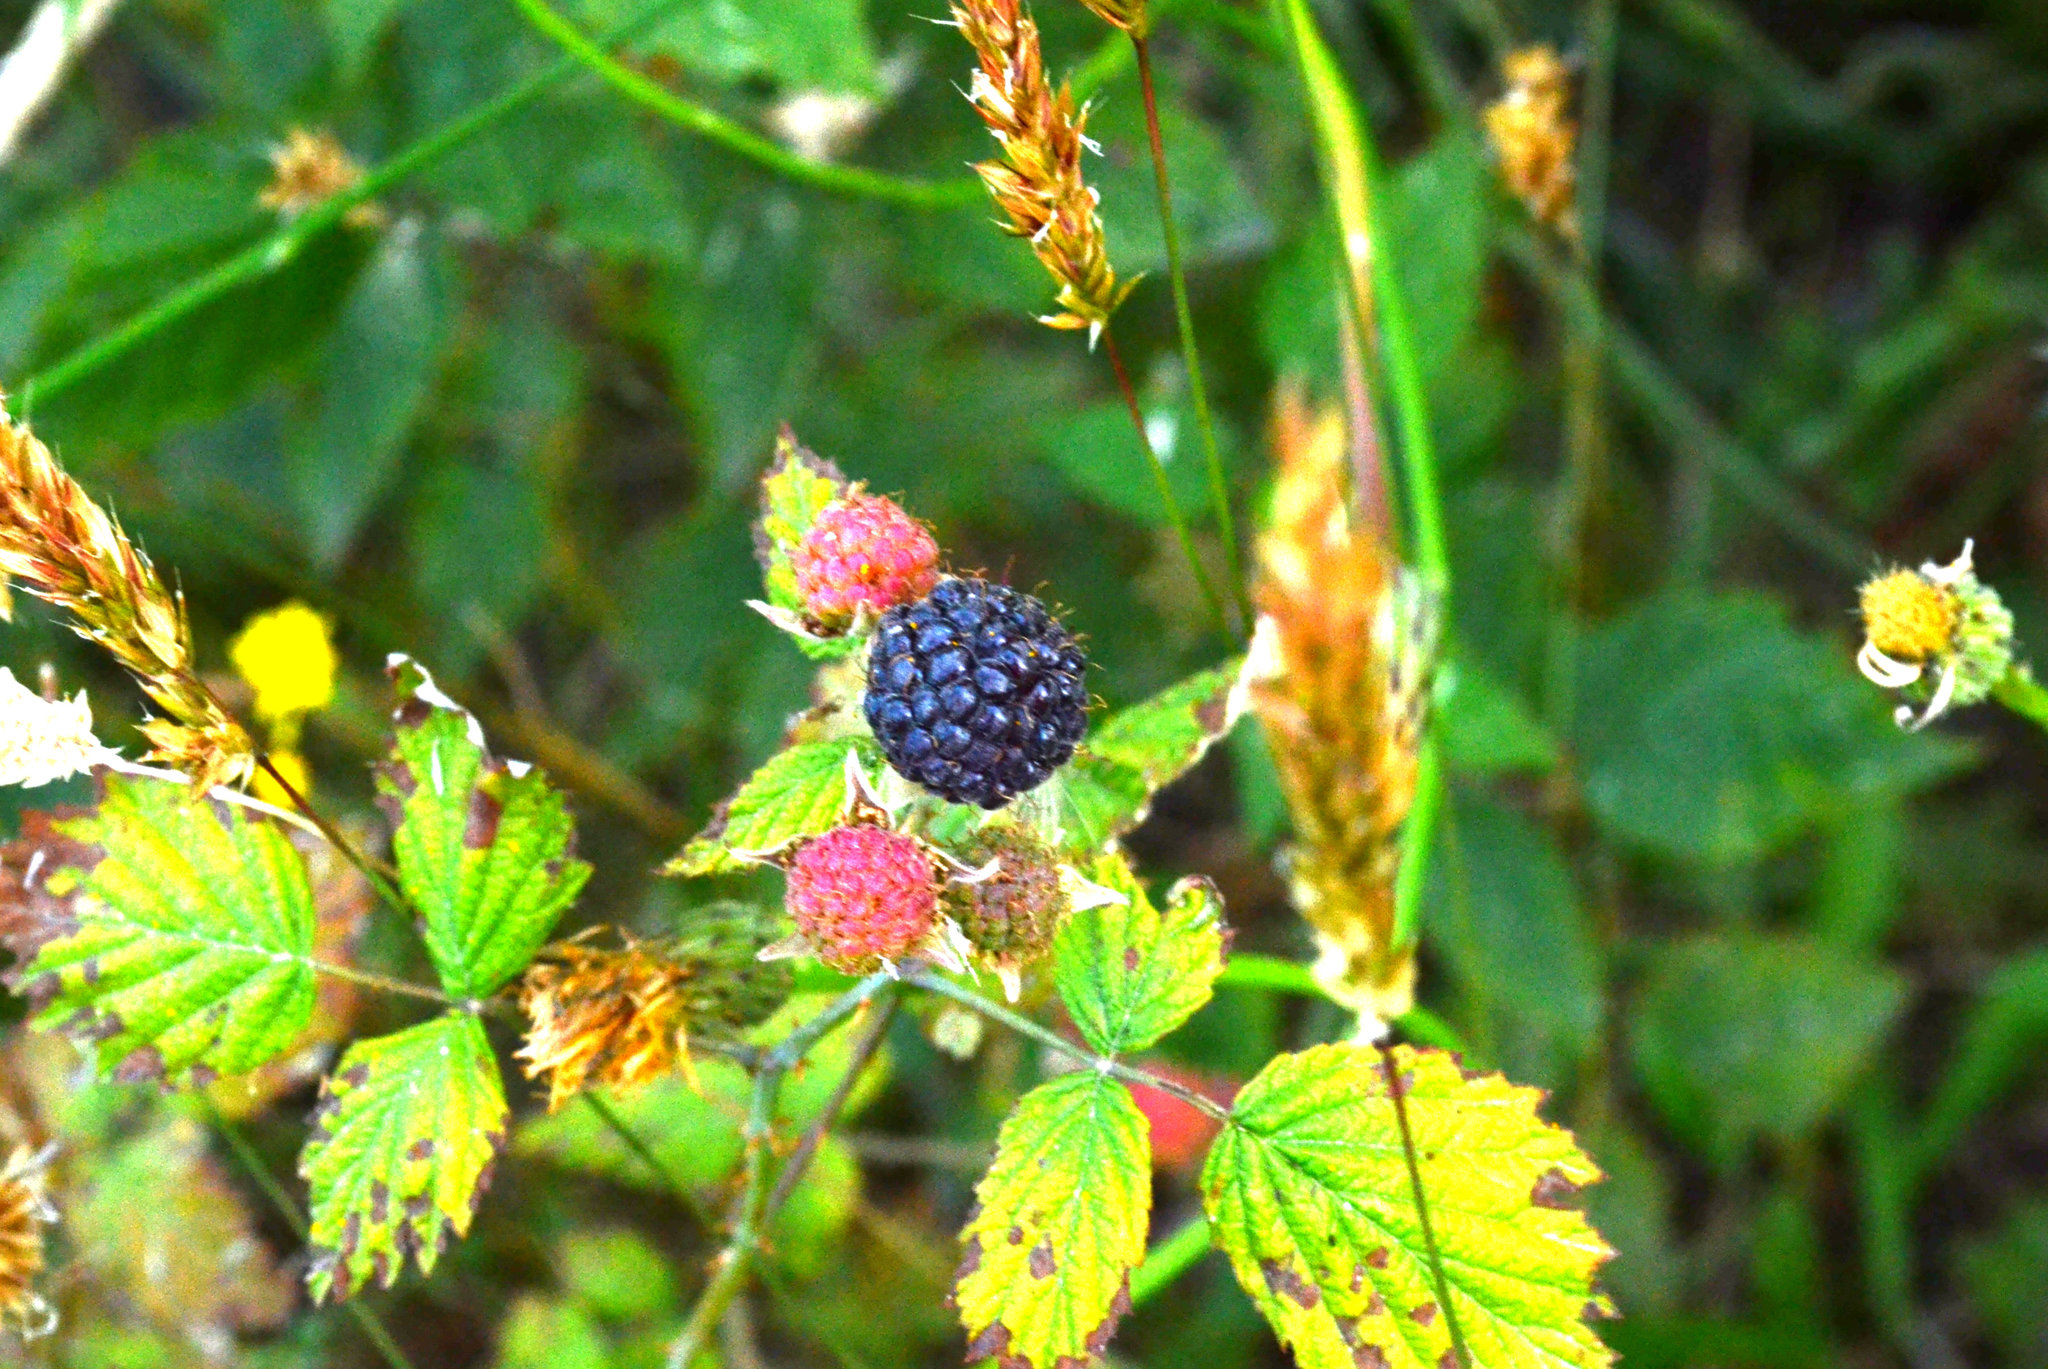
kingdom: Plantae
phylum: Tracheophyta
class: Magnoliopsida
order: Rosales
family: Rosaceae
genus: Rubus
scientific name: Rubus leucodermis
